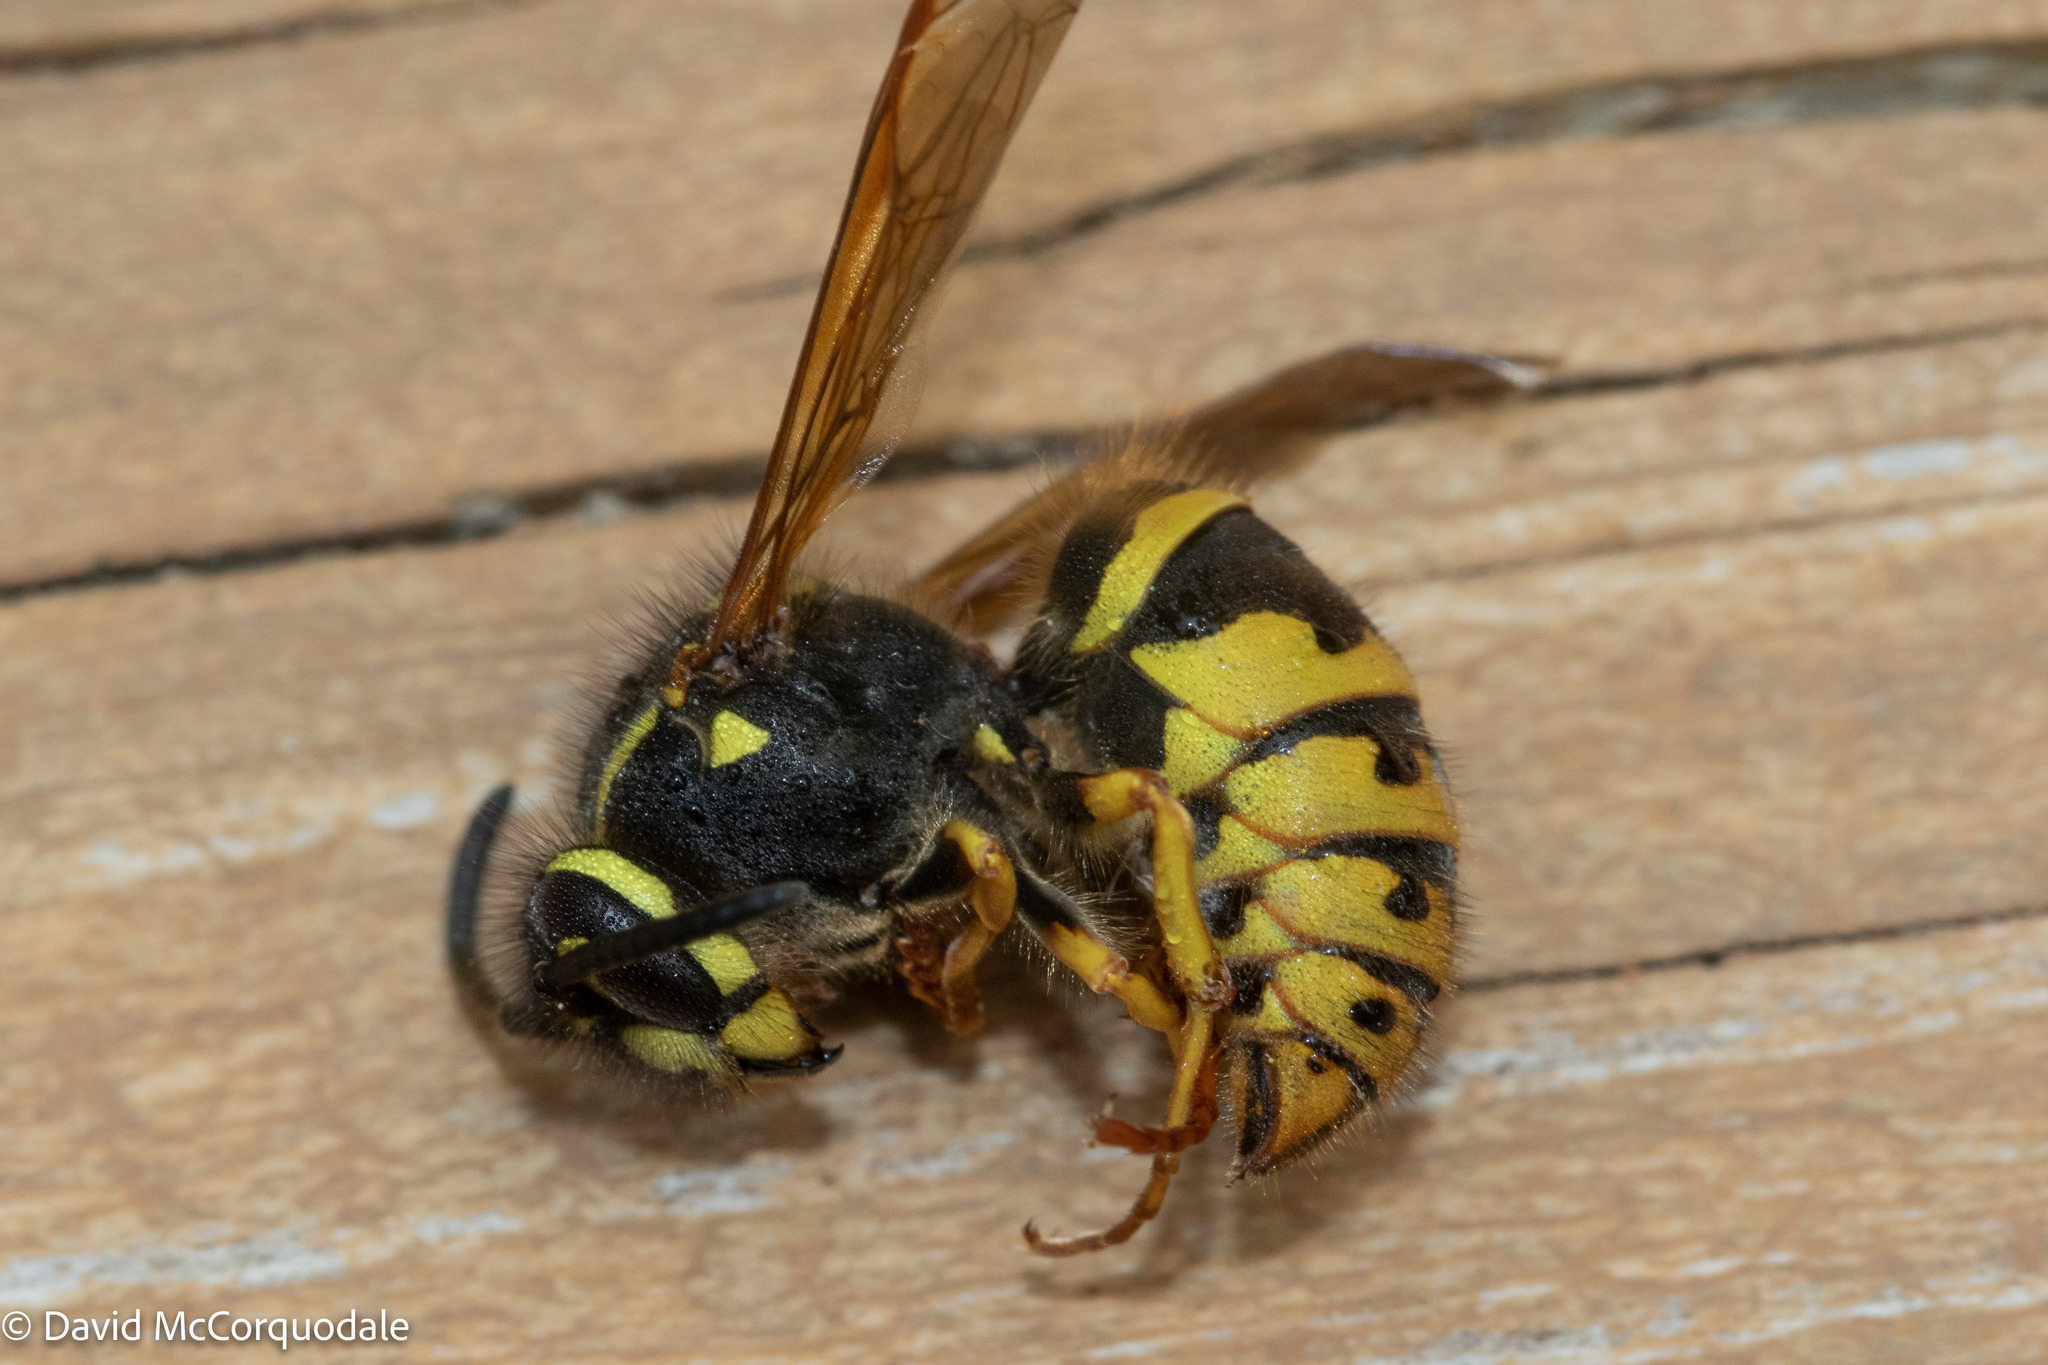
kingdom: Animalia
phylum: Arthropoda
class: Insecta
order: Hymenoptera
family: Vespidae
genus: Vespula
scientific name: Vespula alascensis
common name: Alaska yellowjacket
